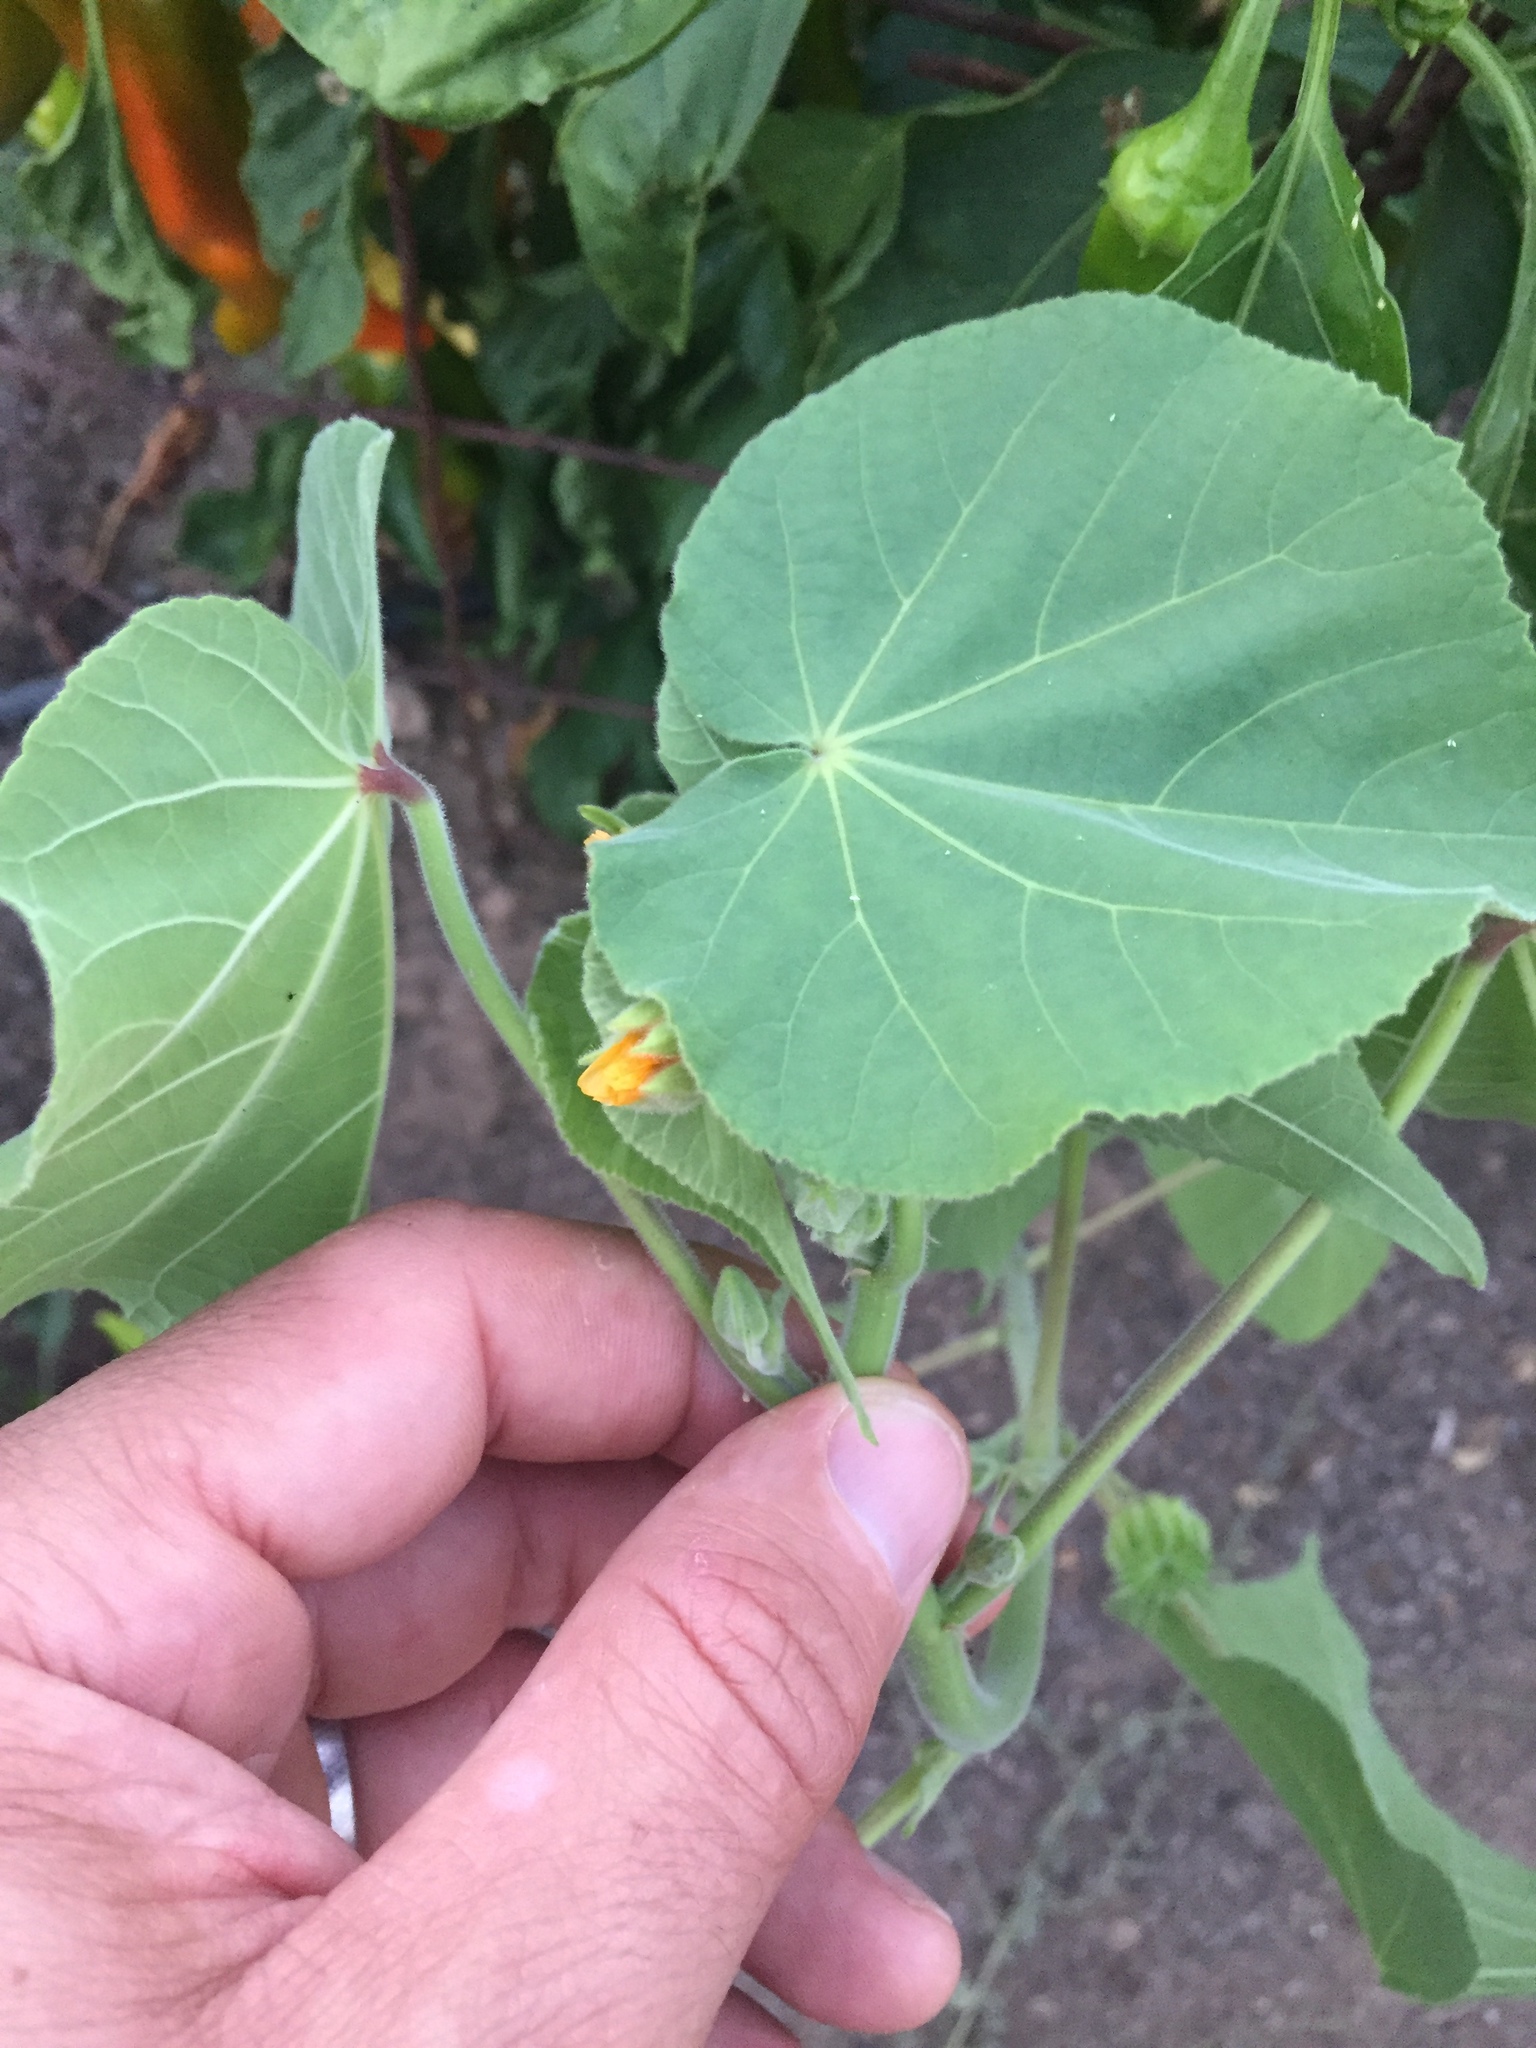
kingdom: Plantae
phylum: Tracheophyta
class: Magnoliopsida
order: Malvales
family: Malvaceae
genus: Abutilon
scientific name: Abutilon theophrasti
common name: Velvetleaf
